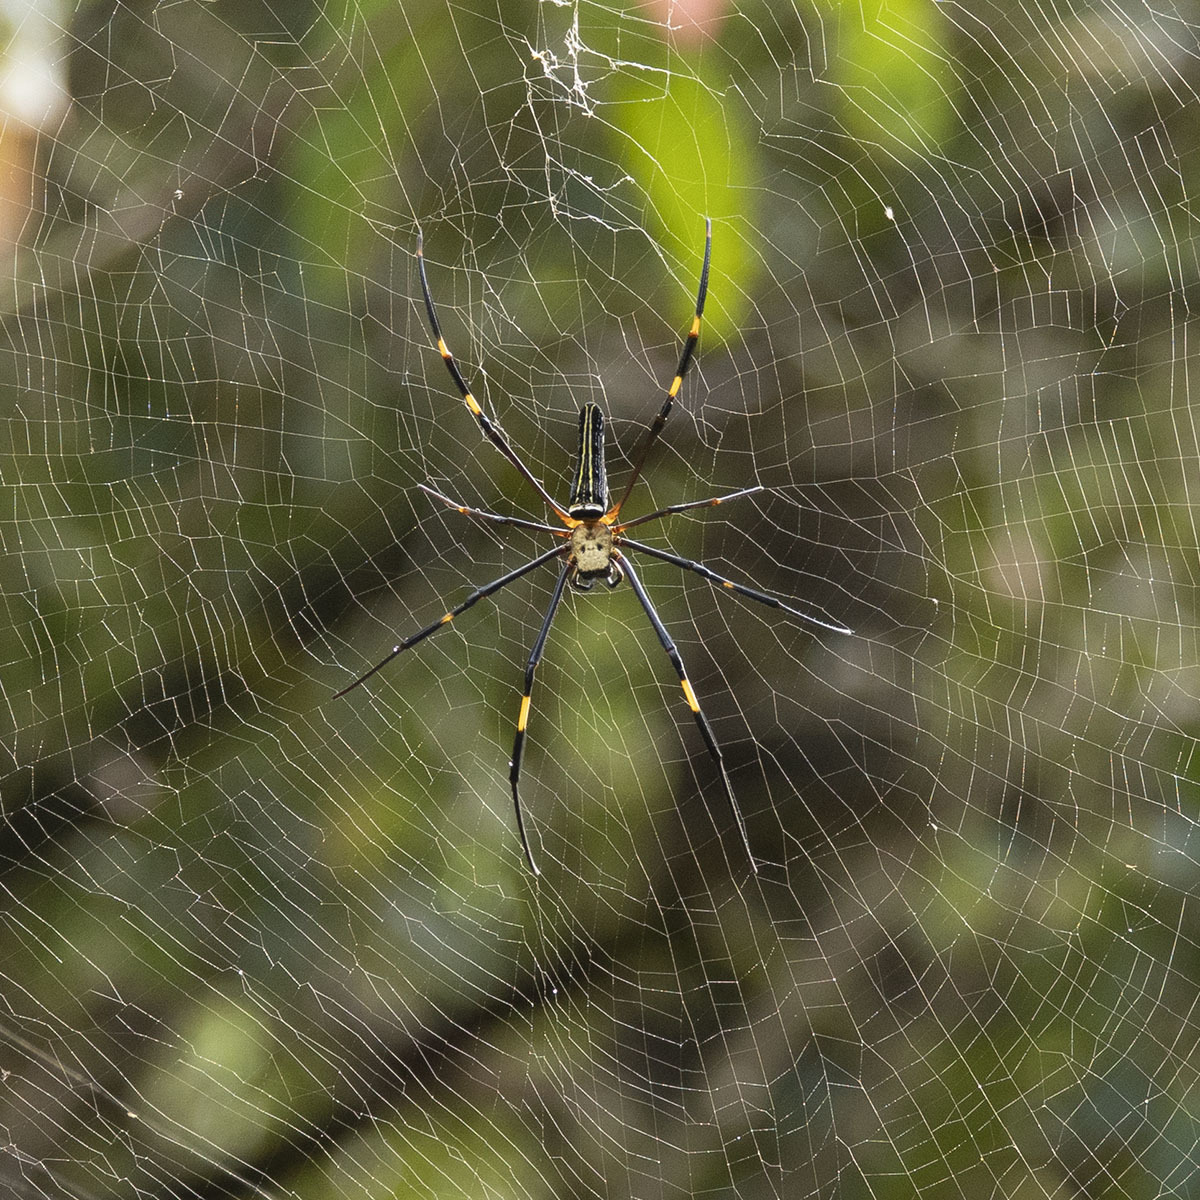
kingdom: Animalia
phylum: Arthropoda
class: Arachnida
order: Araneae
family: Araneidae
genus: Nephila
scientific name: Nephila pilipes
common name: Giant golden orb weaver
